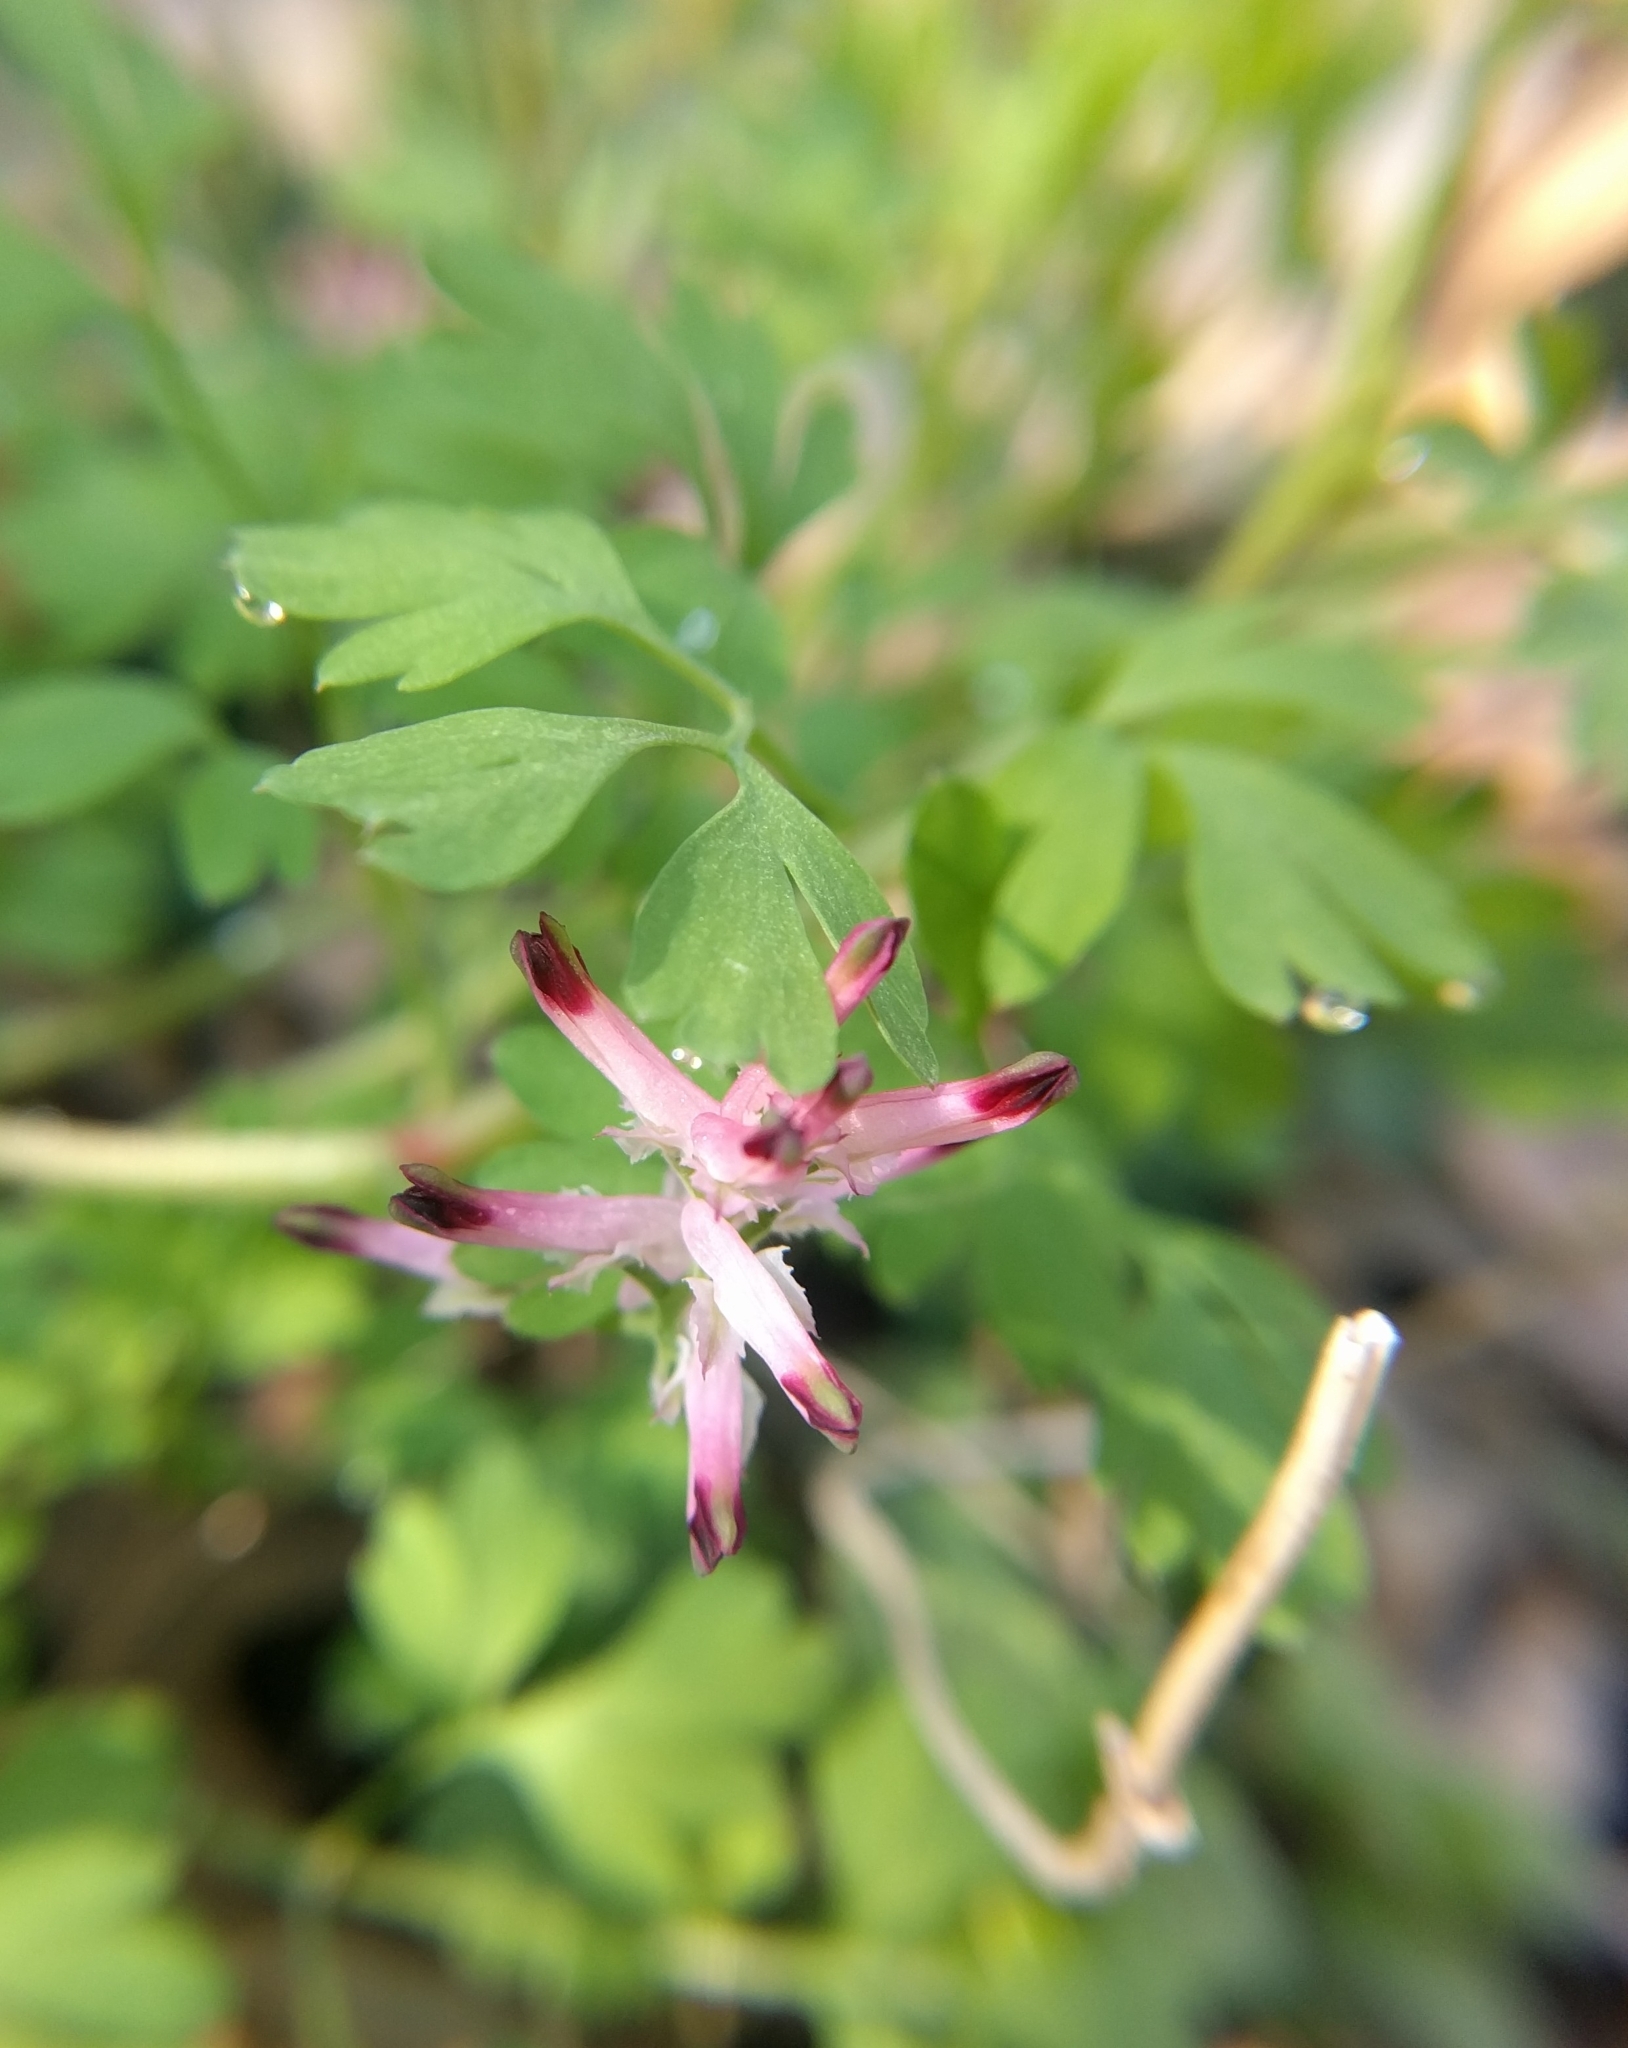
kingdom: Plantae
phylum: Tracheophyta
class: Magnoliopsida
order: Ranunculales
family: Papaveraceae
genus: Fumaria
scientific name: Fumaria muralis
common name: Common ramping-fumitory
